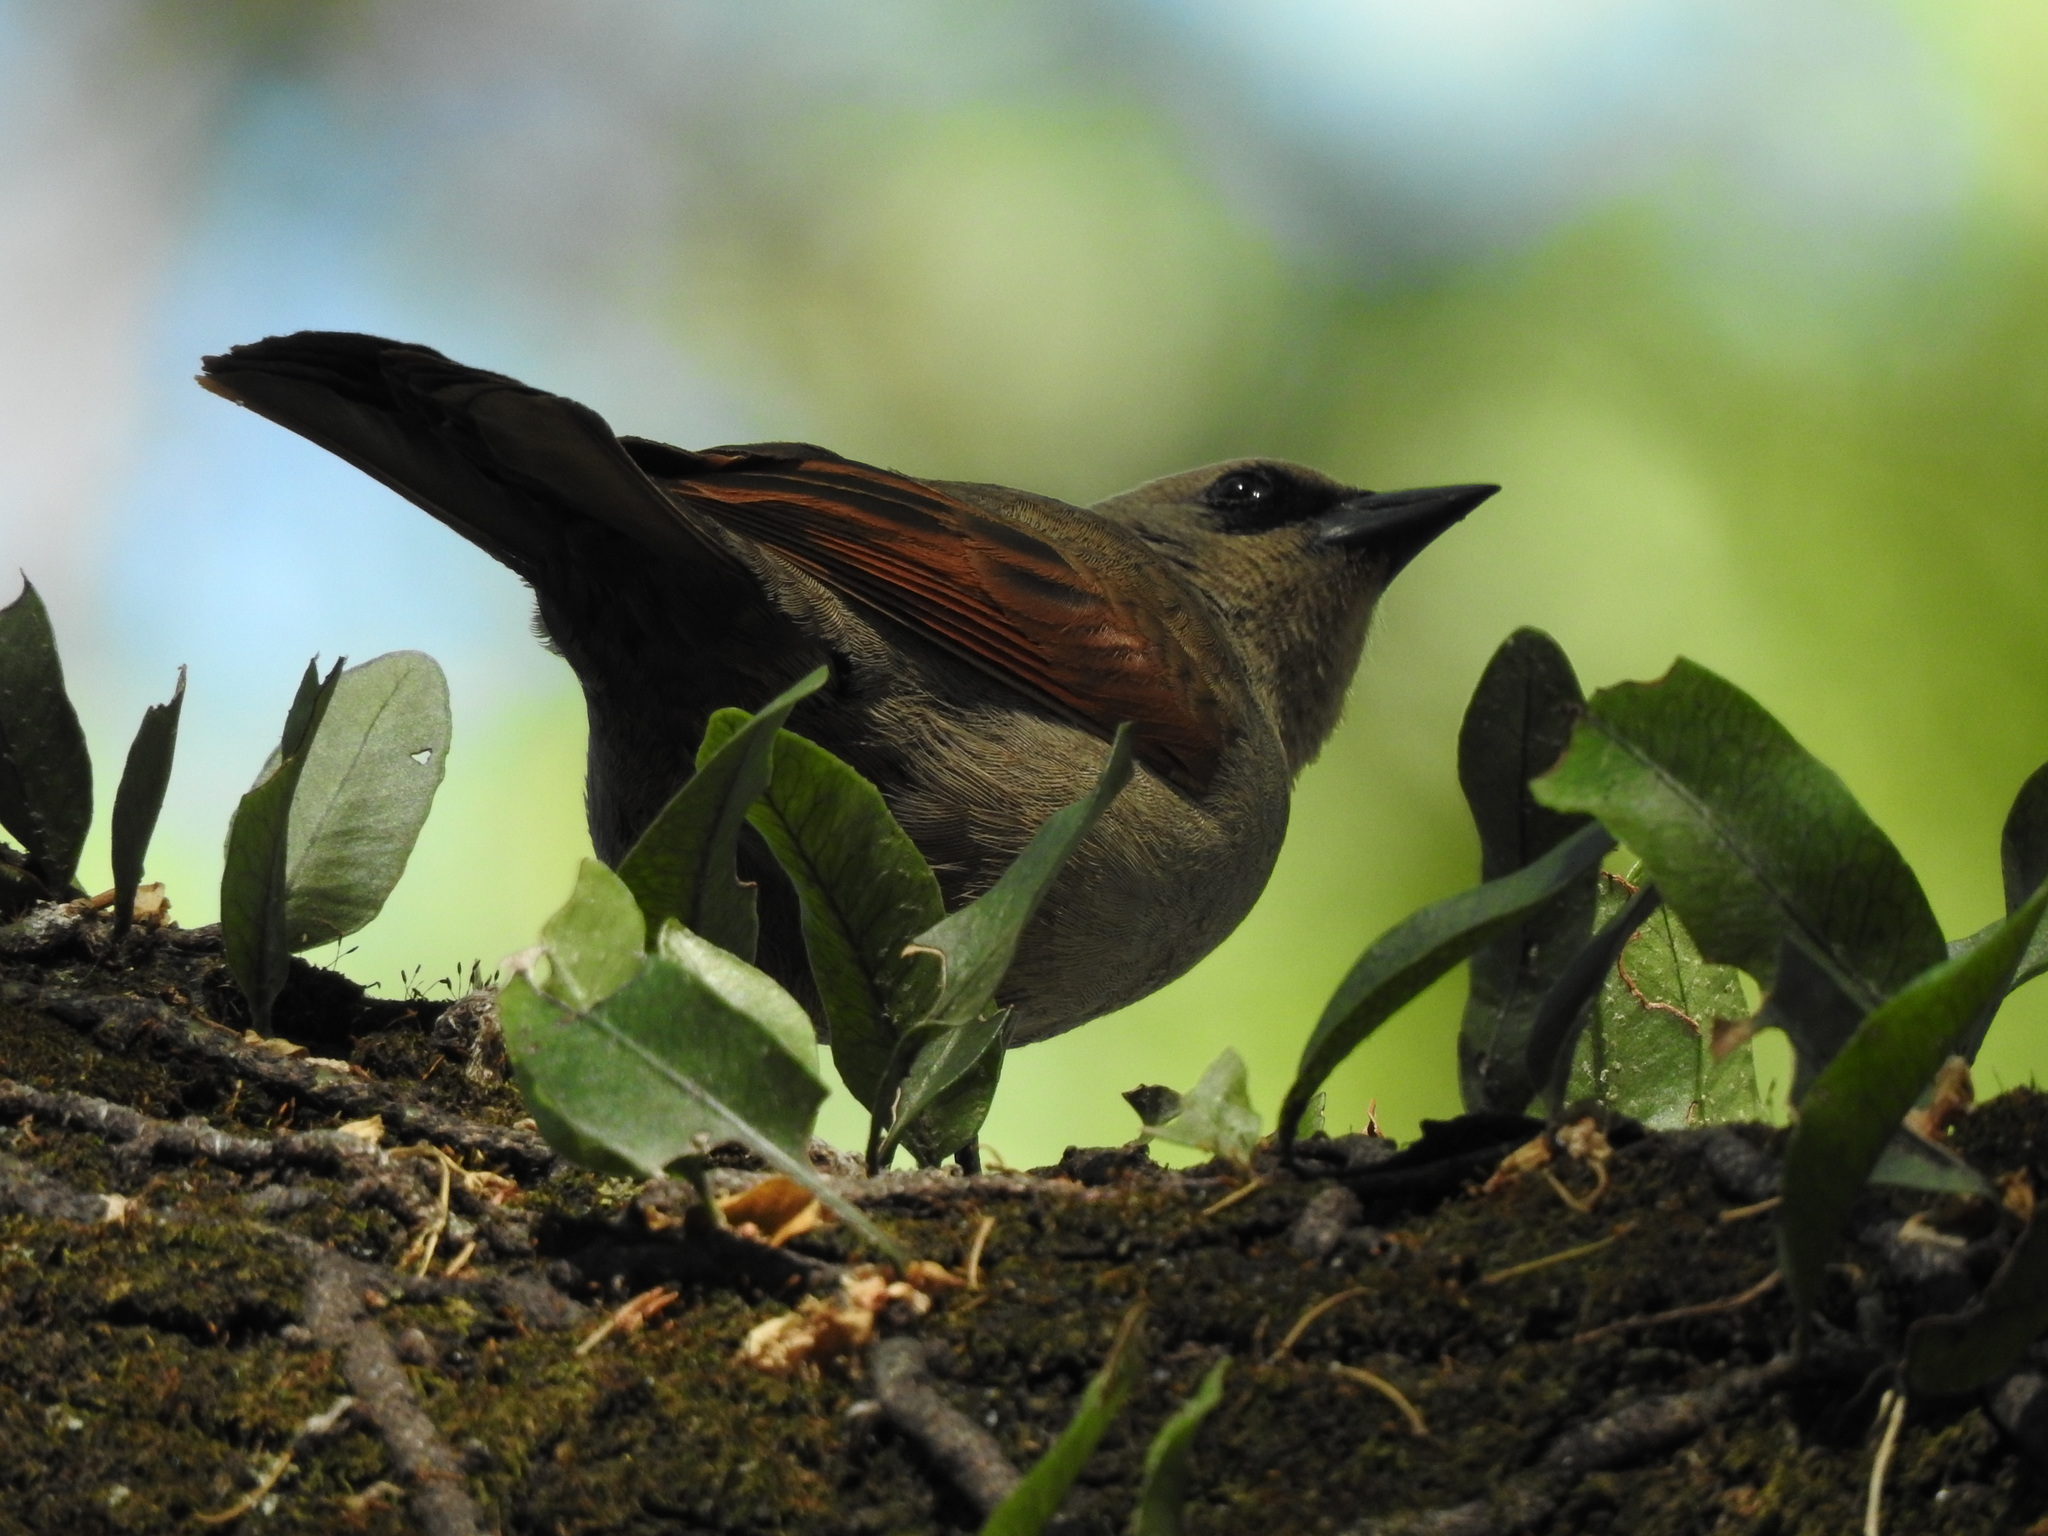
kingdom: Animalia
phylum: Chordata
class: Aves
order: Passeriformes
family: Icteridae
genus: Agelaioides
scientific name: Agelaioides badius
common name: Baywing
